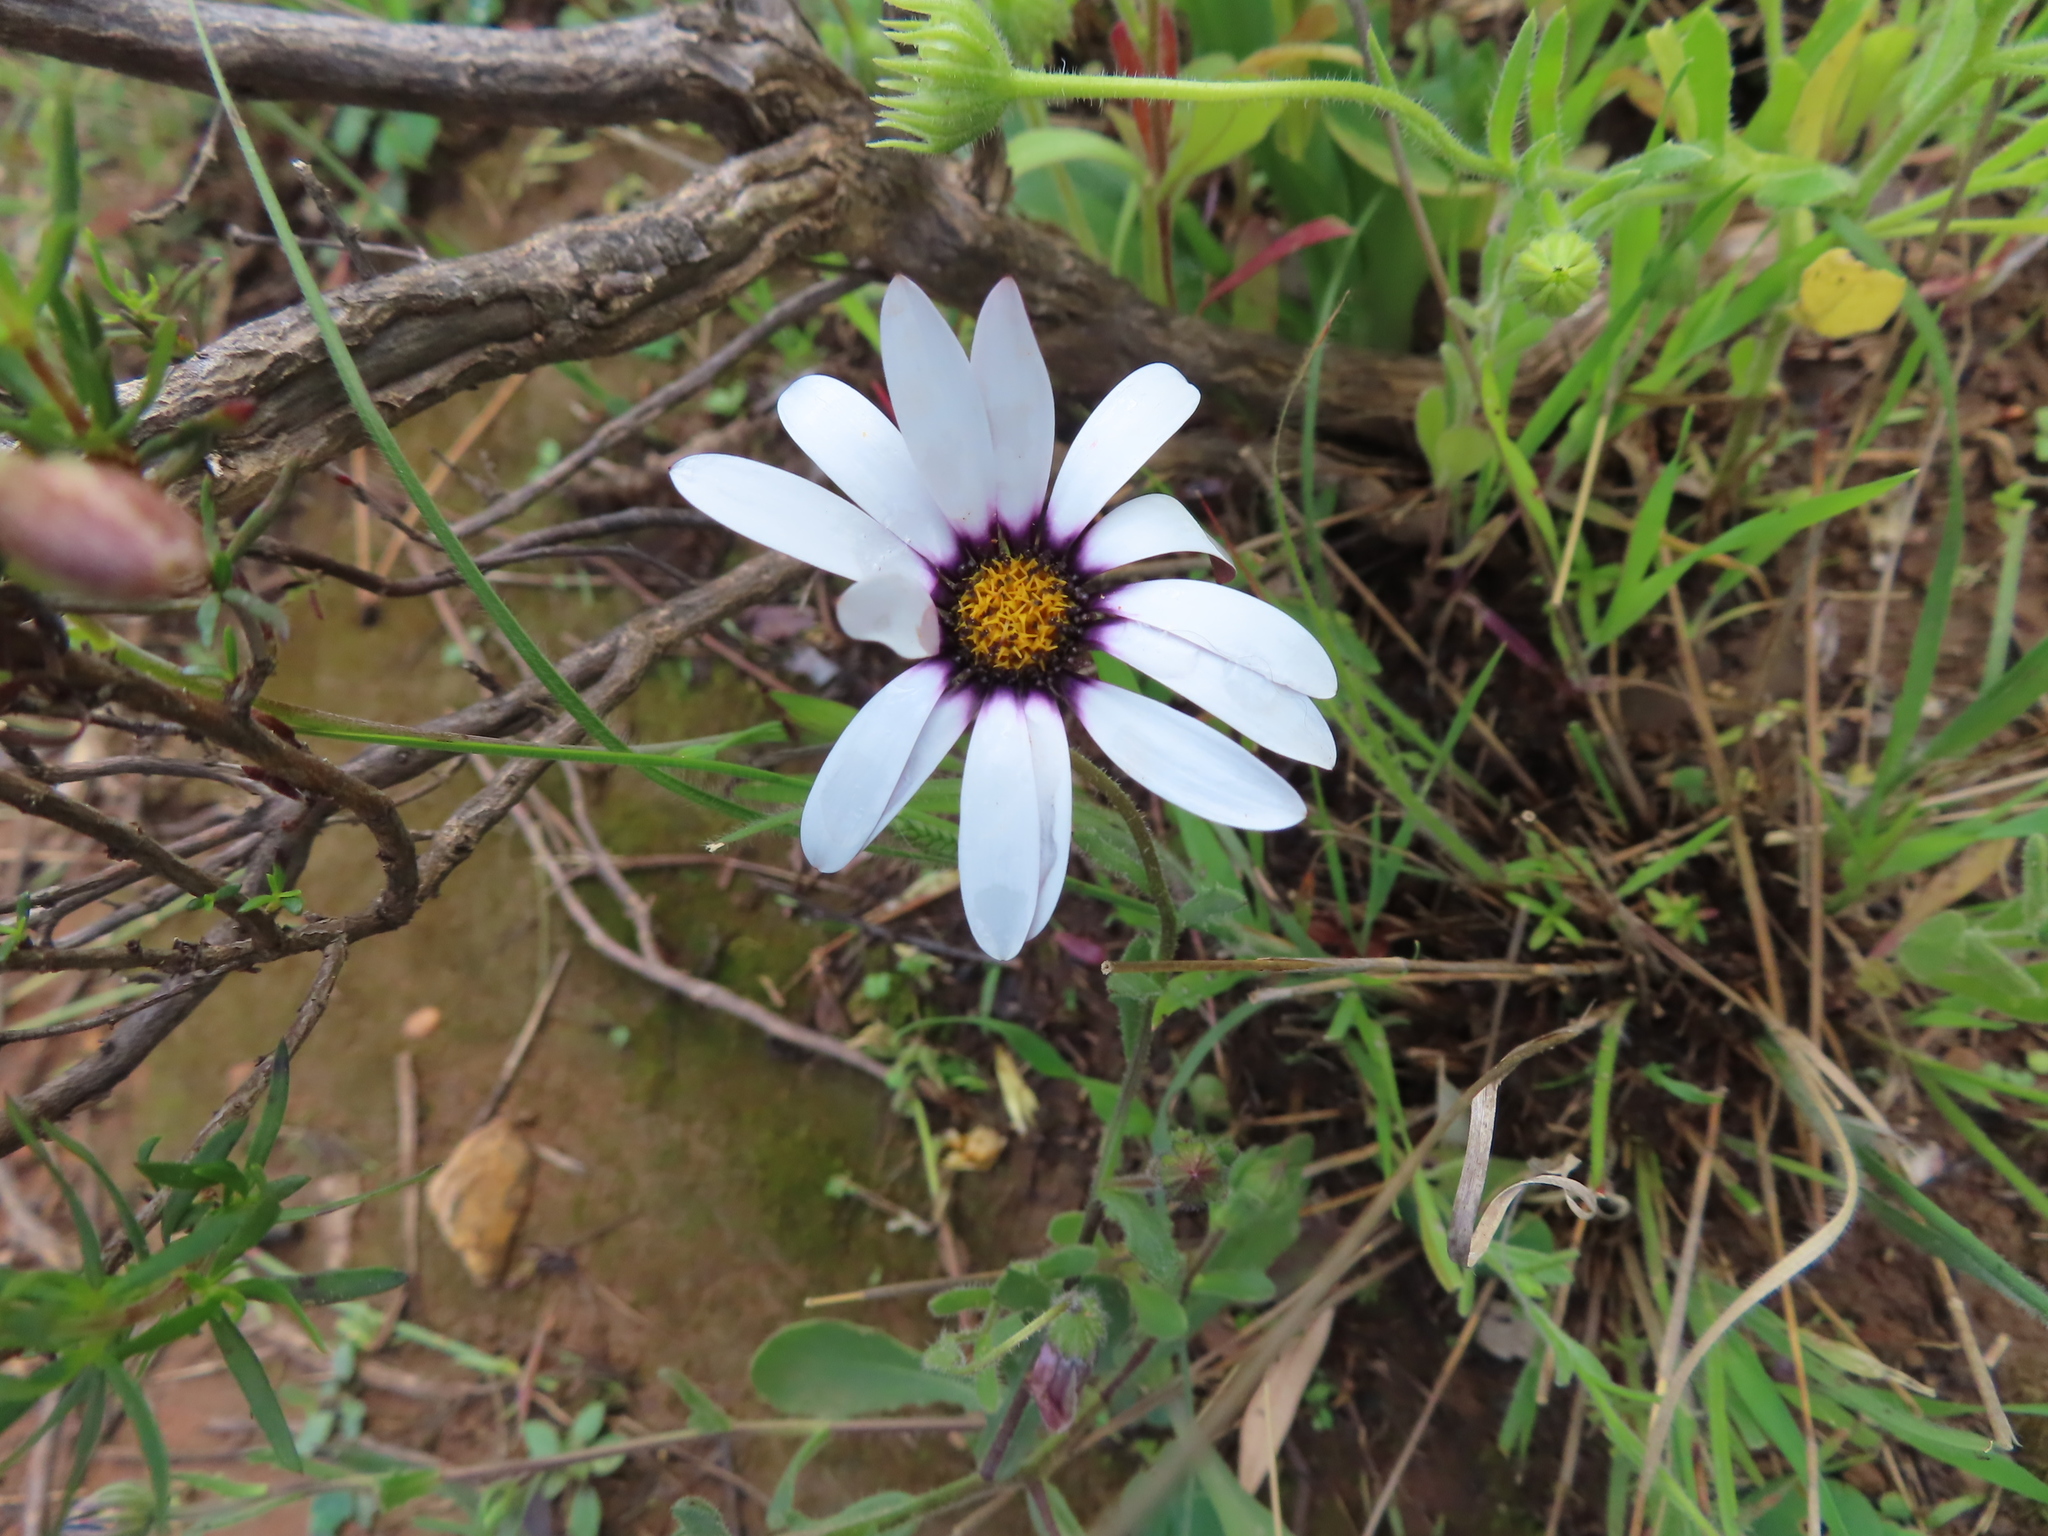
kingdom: Plantae
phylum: Tracheophyta
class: Magnoliopsida
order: Asterales
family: Asteraceae
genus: Dimorphotheca
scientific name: Dimorphotheca nudicaulis
